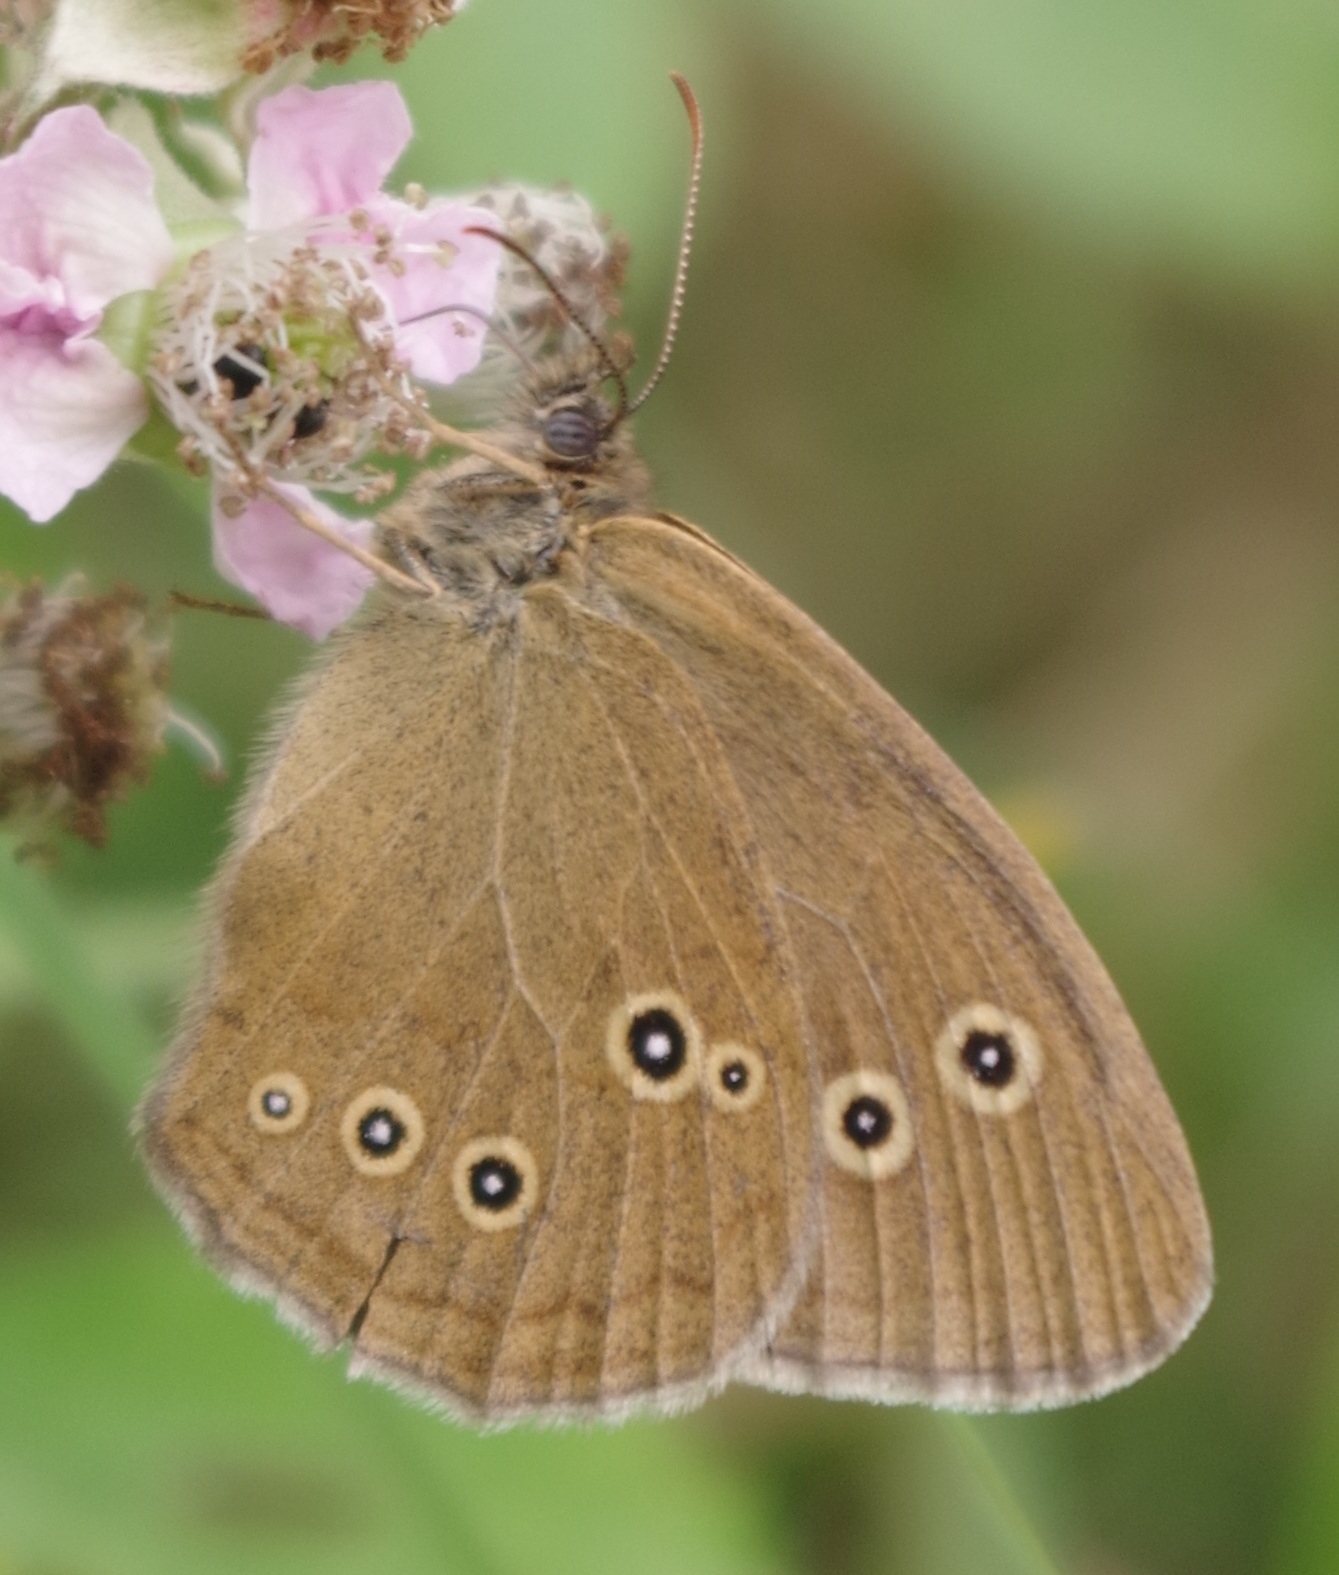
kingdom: Animalia
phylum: Arthropoda
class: Insecta
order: Lepidoptera
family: Nymphalidae
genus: Aphantopus
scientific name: Aphantopus hyperantus
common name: Ringlet
